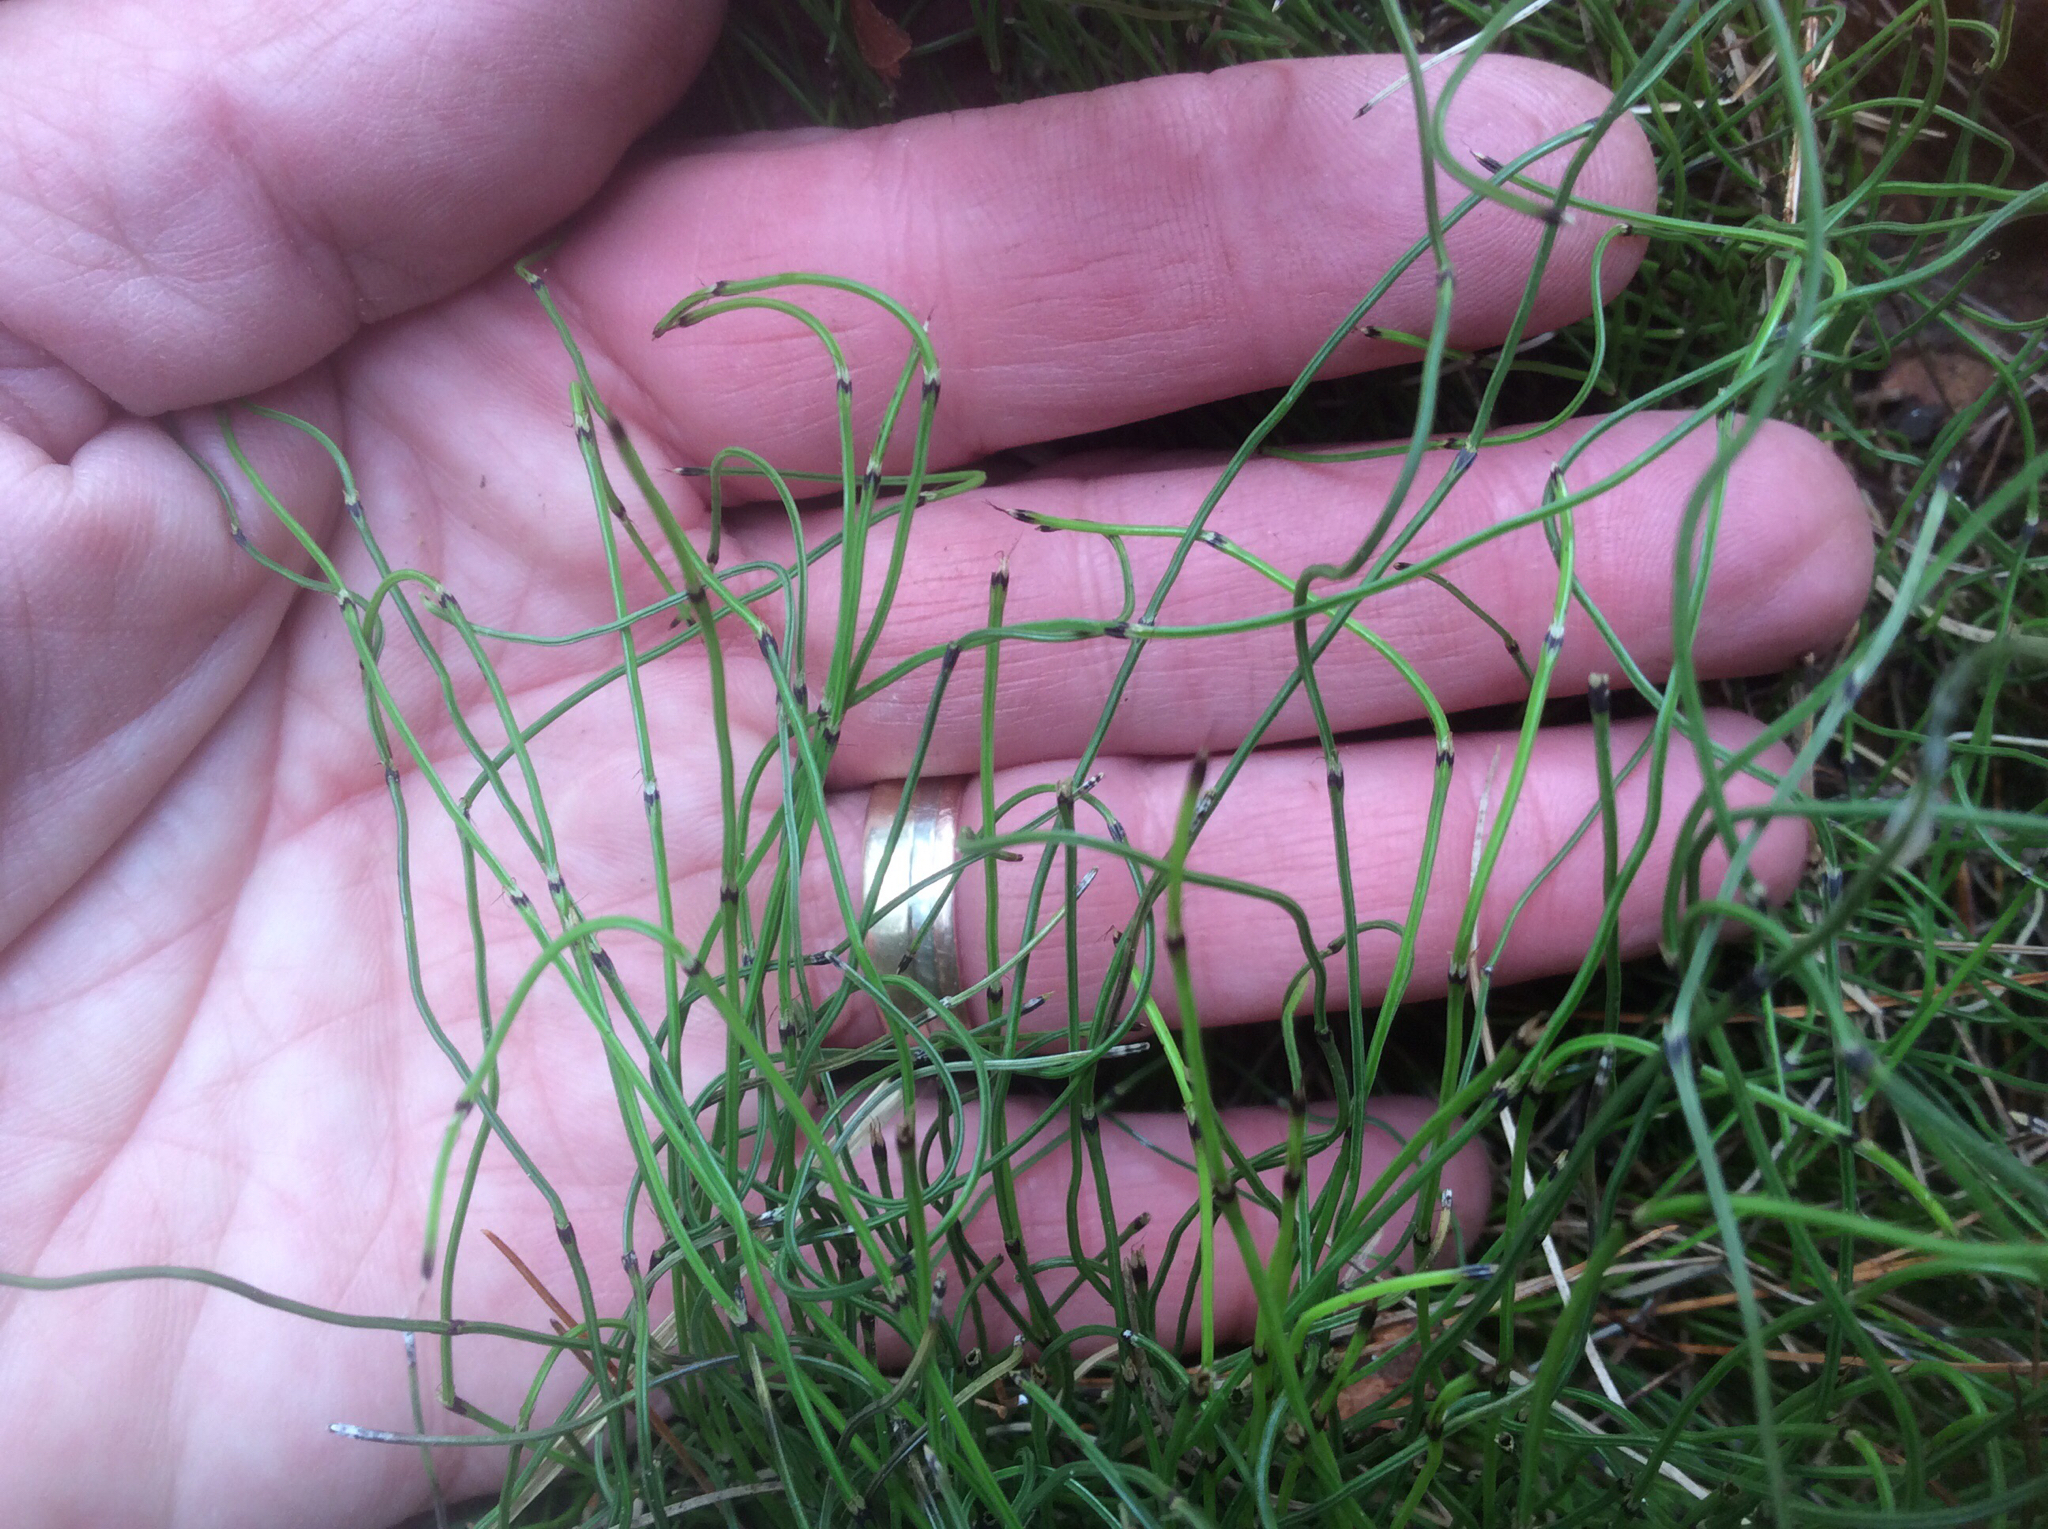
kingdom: Plantae
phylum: Tracheophyta
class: Polypodiopsida
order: Equisetales
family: Equisetaceae
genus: Equisetum
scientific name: Equisetum scirpoides
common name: Delicate horsetail
